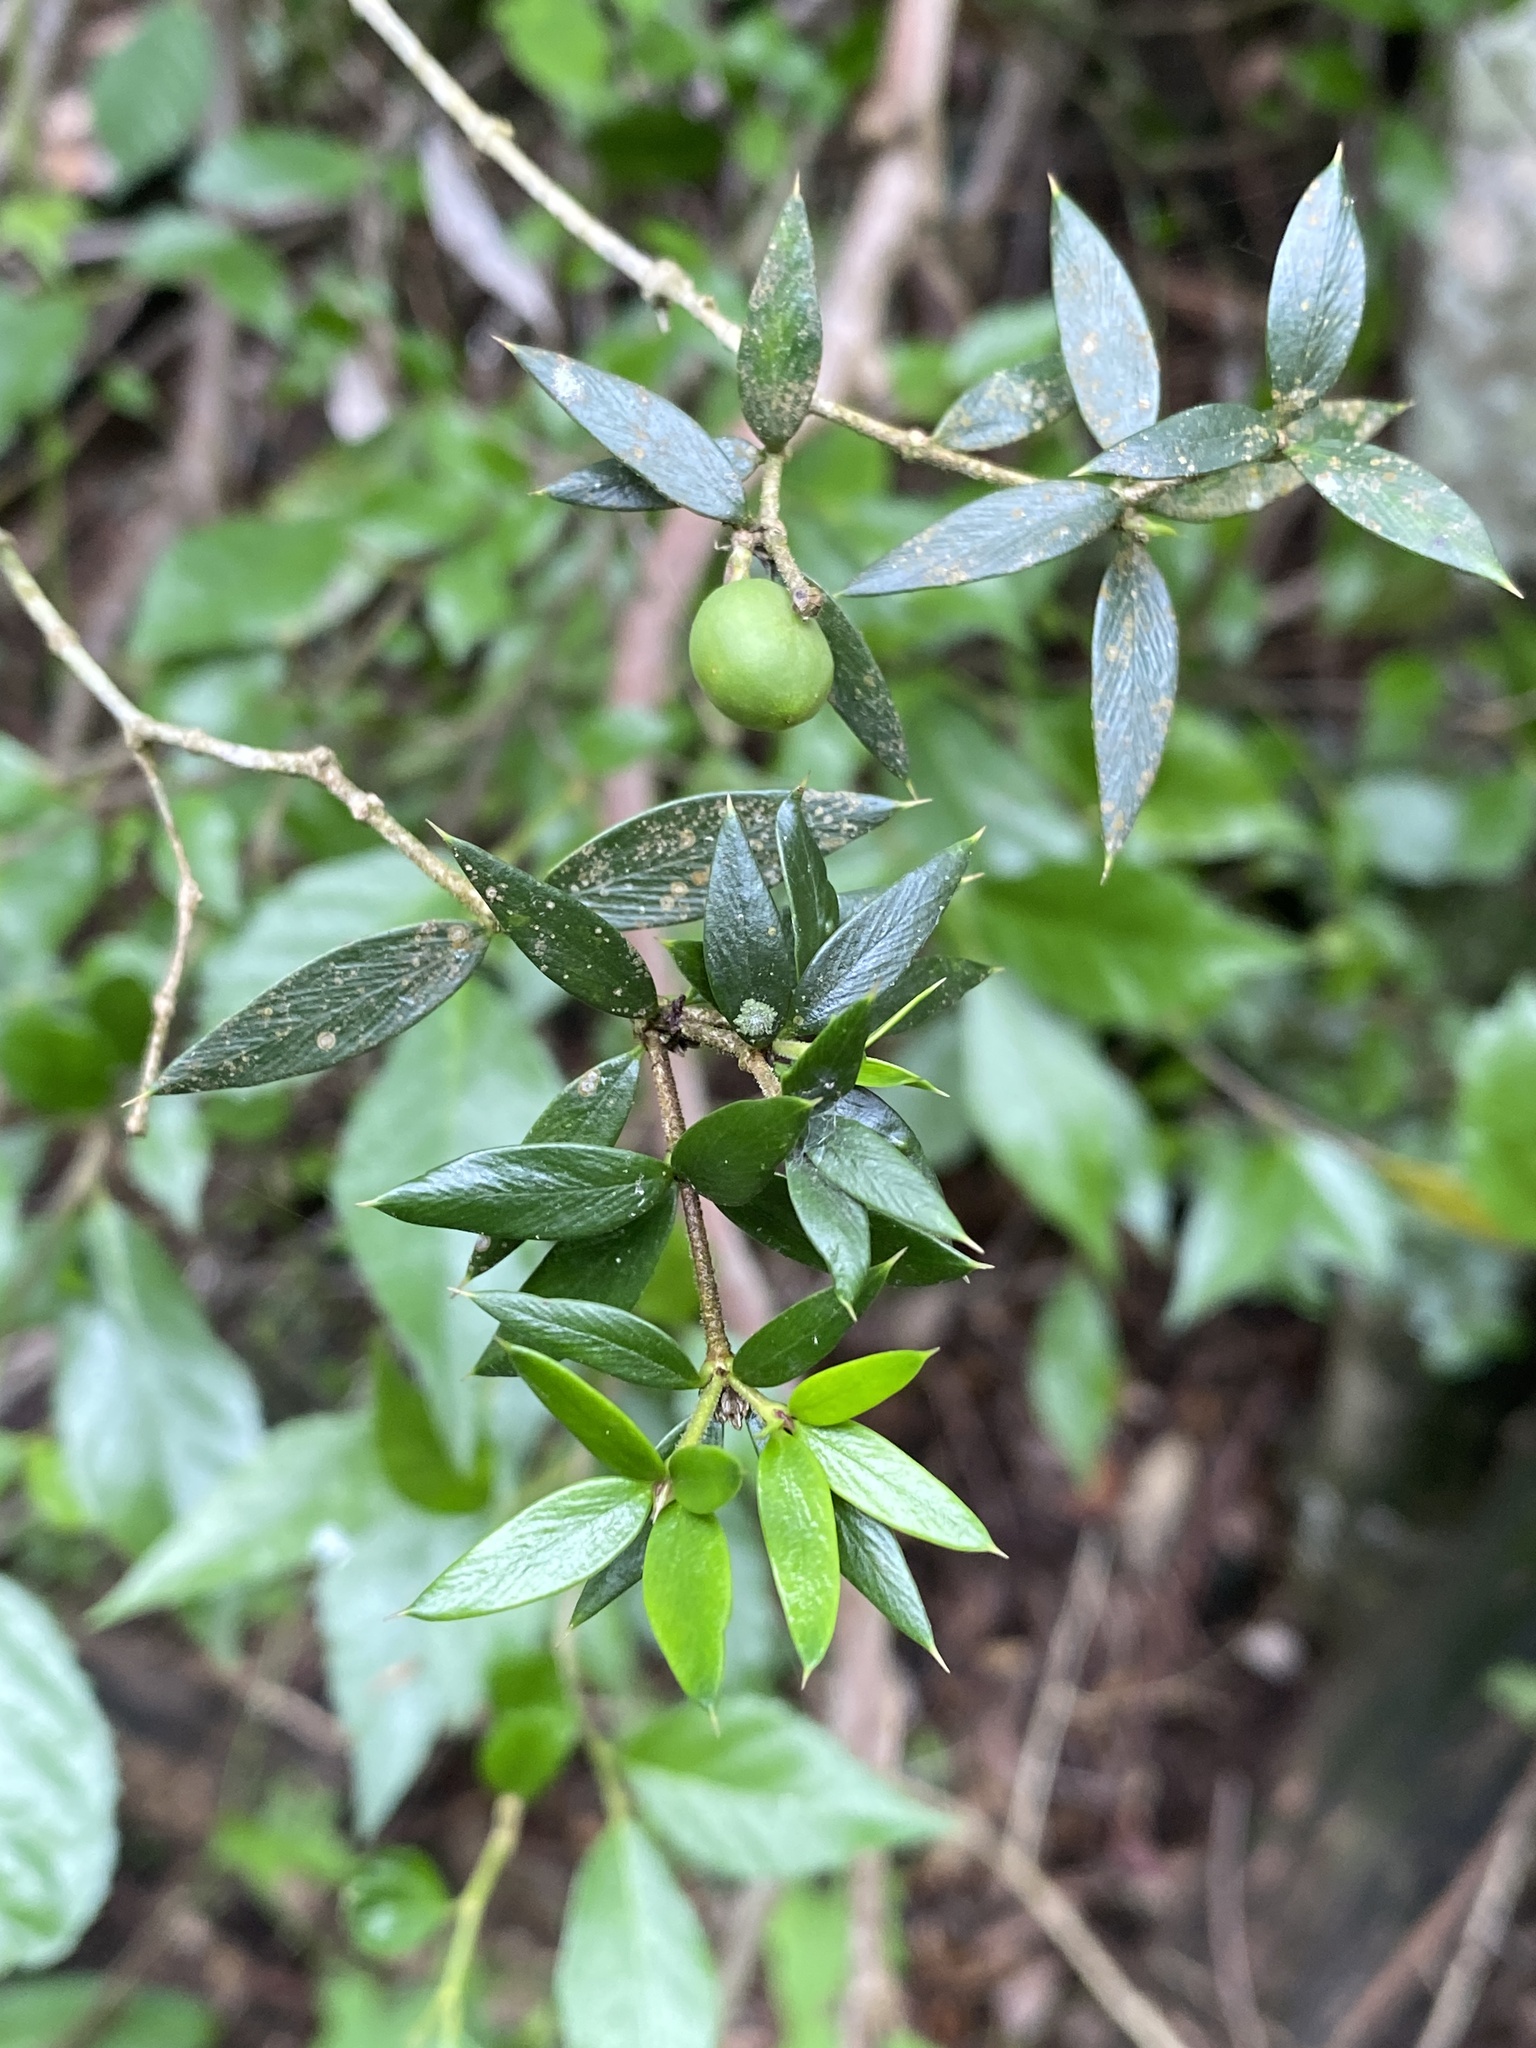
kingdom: Plantae
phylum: Tracheophyta
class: Magnoliopsida
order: Gentianales
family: Apocynaceae
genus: Alyxia
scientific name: Alyxia ruscifolia
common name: Chainfruit
